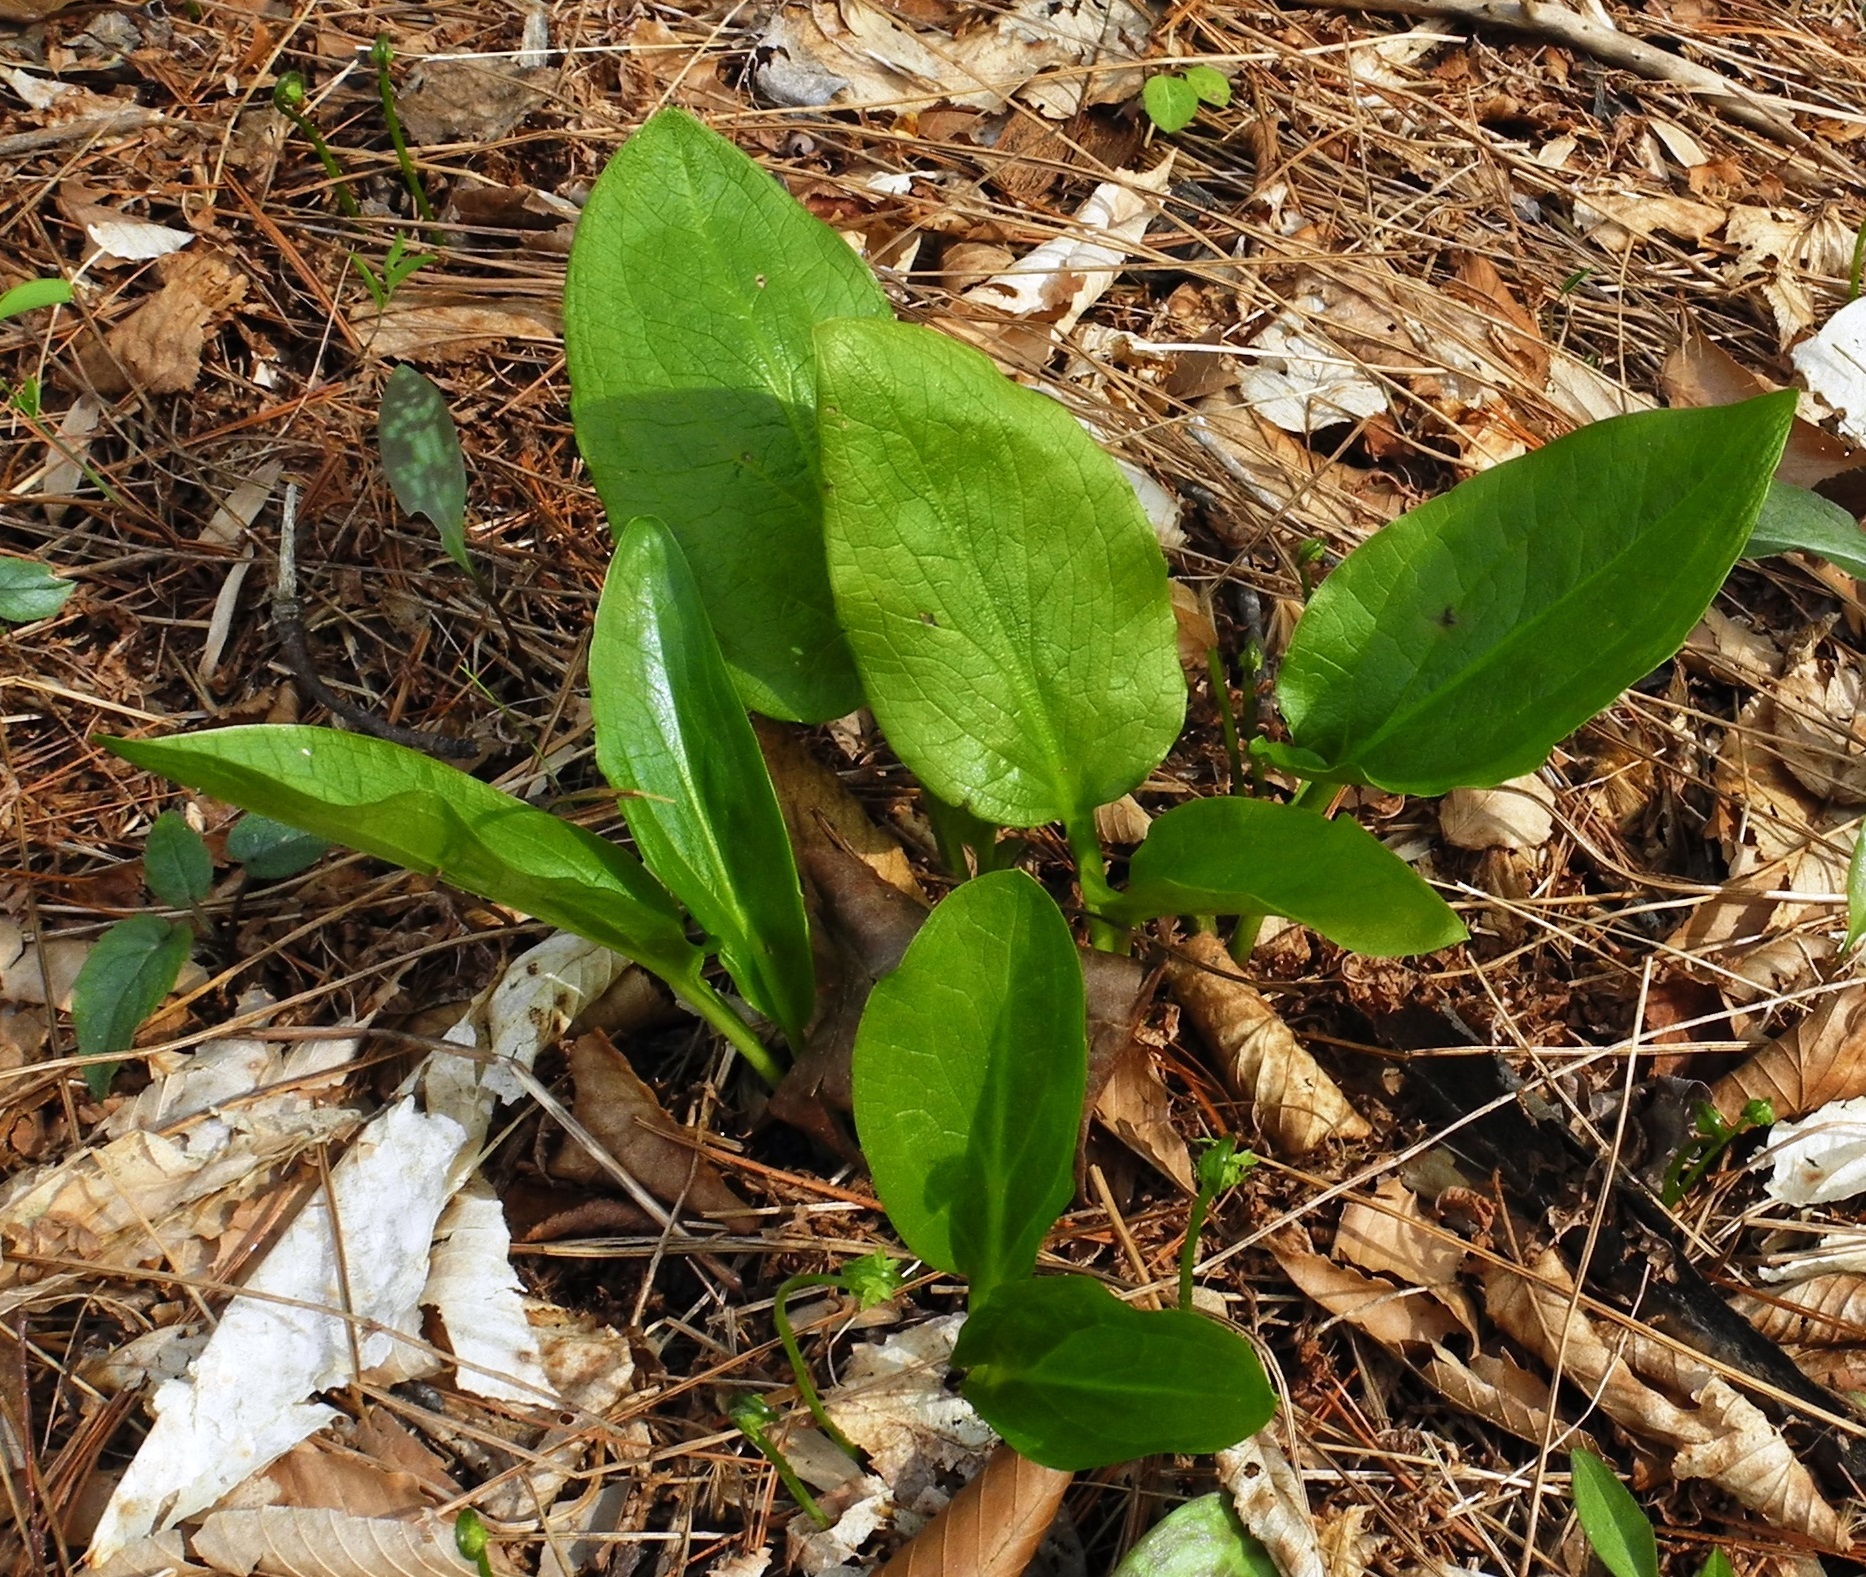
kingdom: Plantae
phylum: Tracheophyta
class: Liliopsida
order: Alismatales
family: Araceae
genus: Symplocarpus
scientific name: Symplocarpus foetidus
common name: Eastern skunk cabbage
